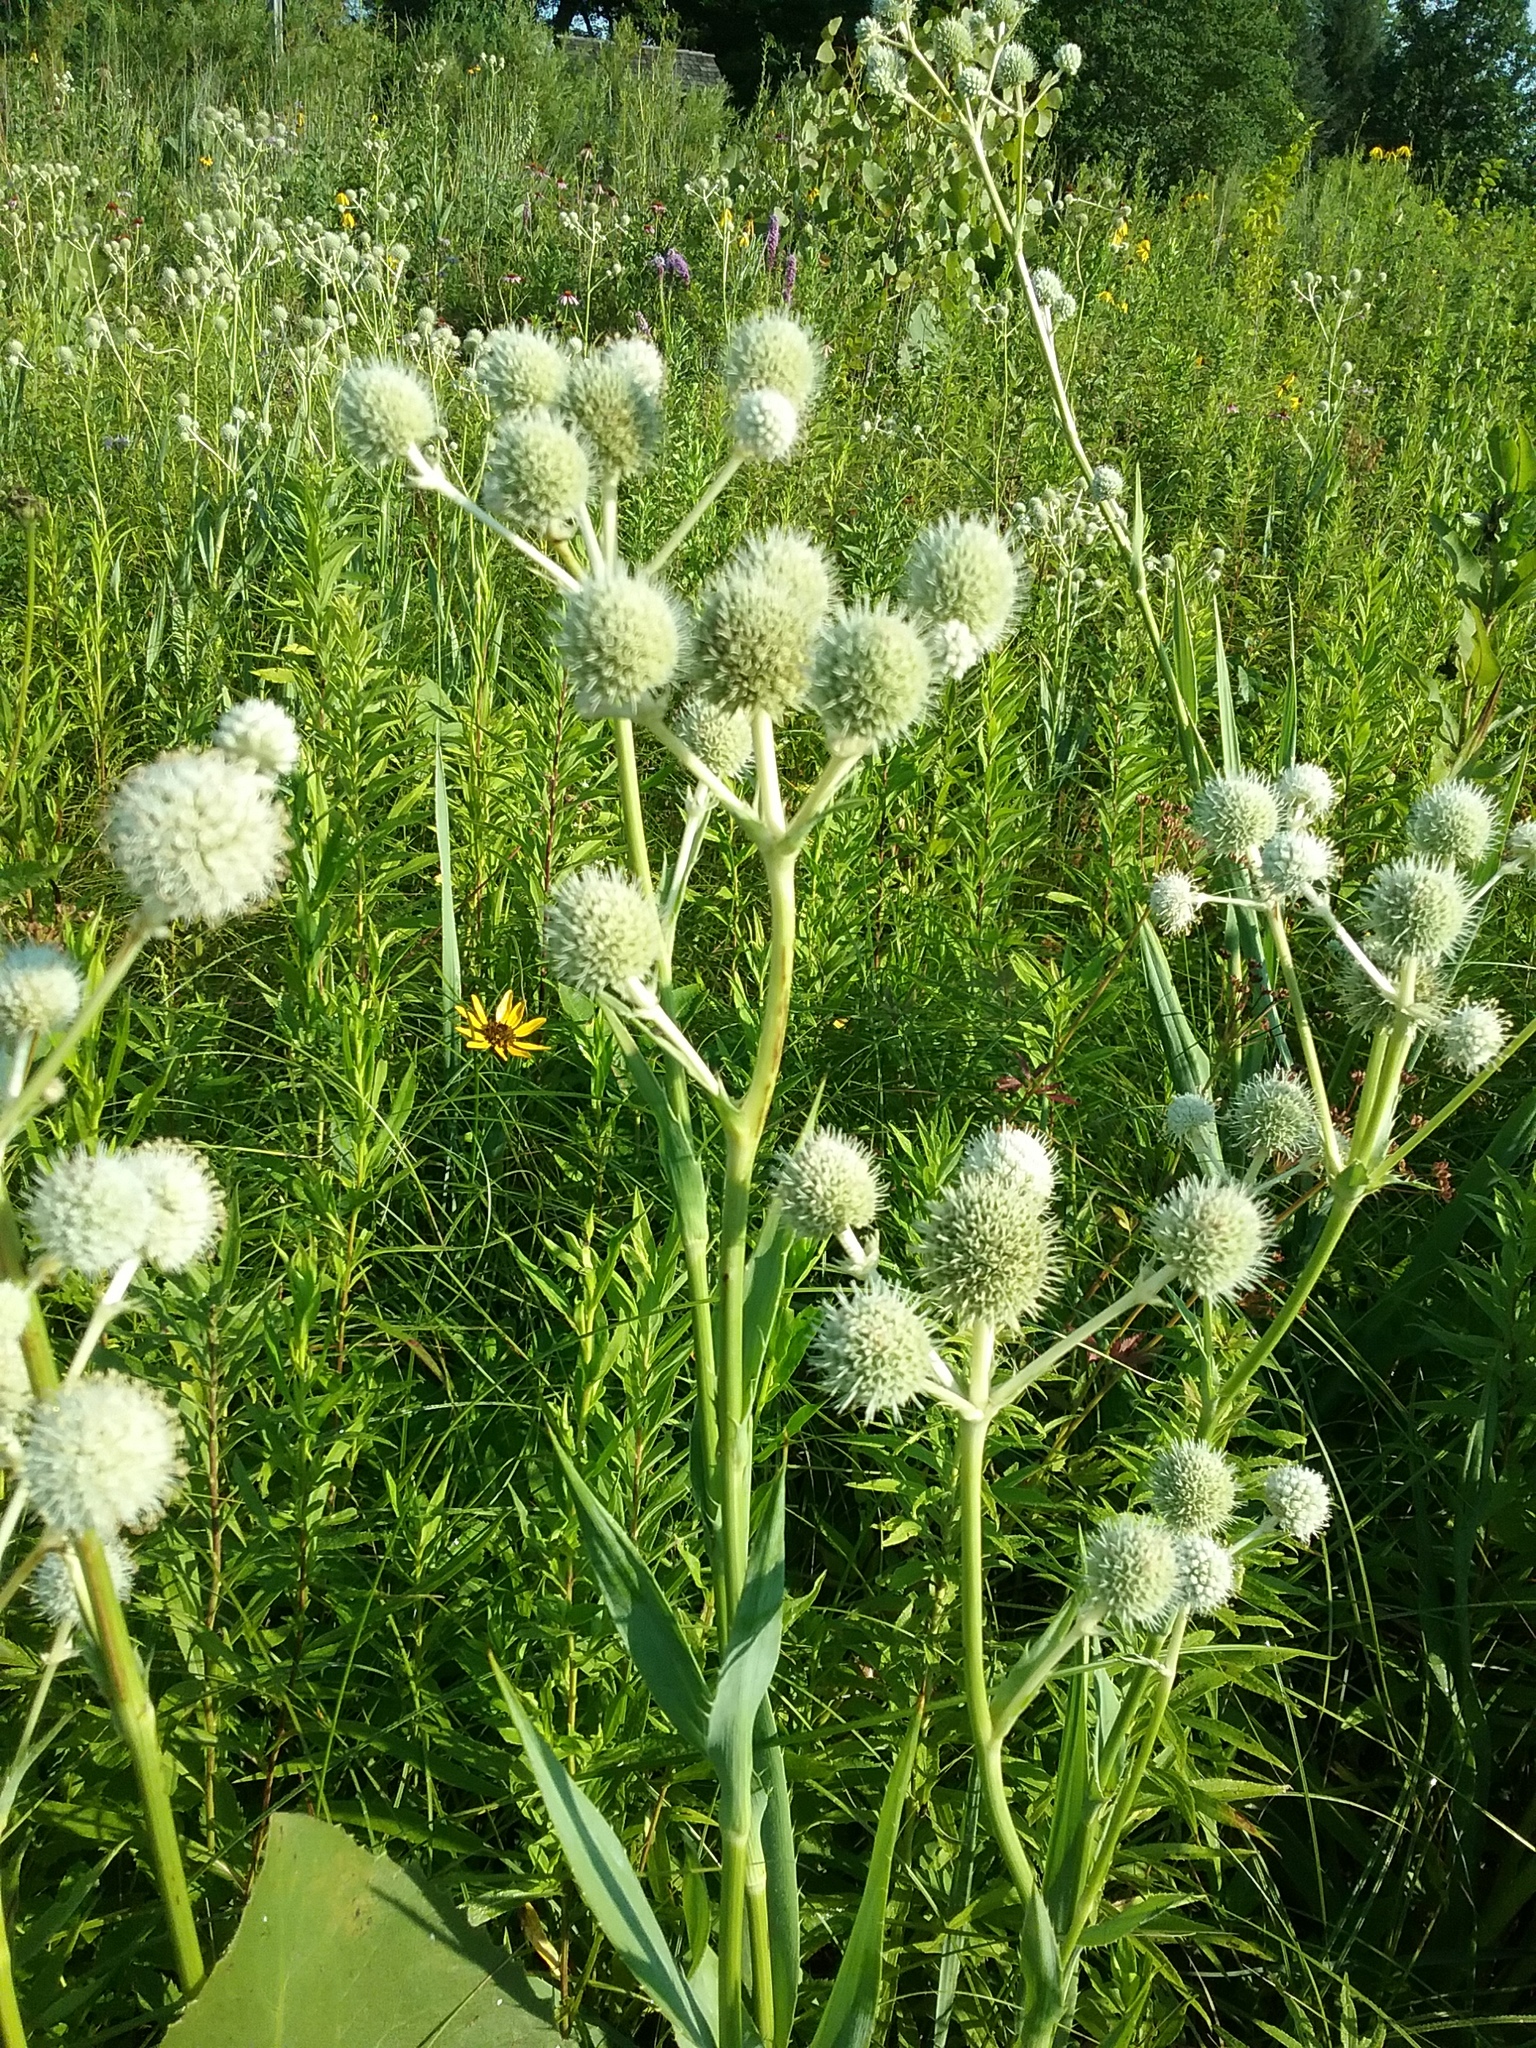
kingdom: Plantae
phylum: Tracheophyta
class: Magnoliopsida
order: Apiales
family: Apiaceae
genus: Eryngium
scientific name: Eryngium yuccifolium
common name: Button eryngo
